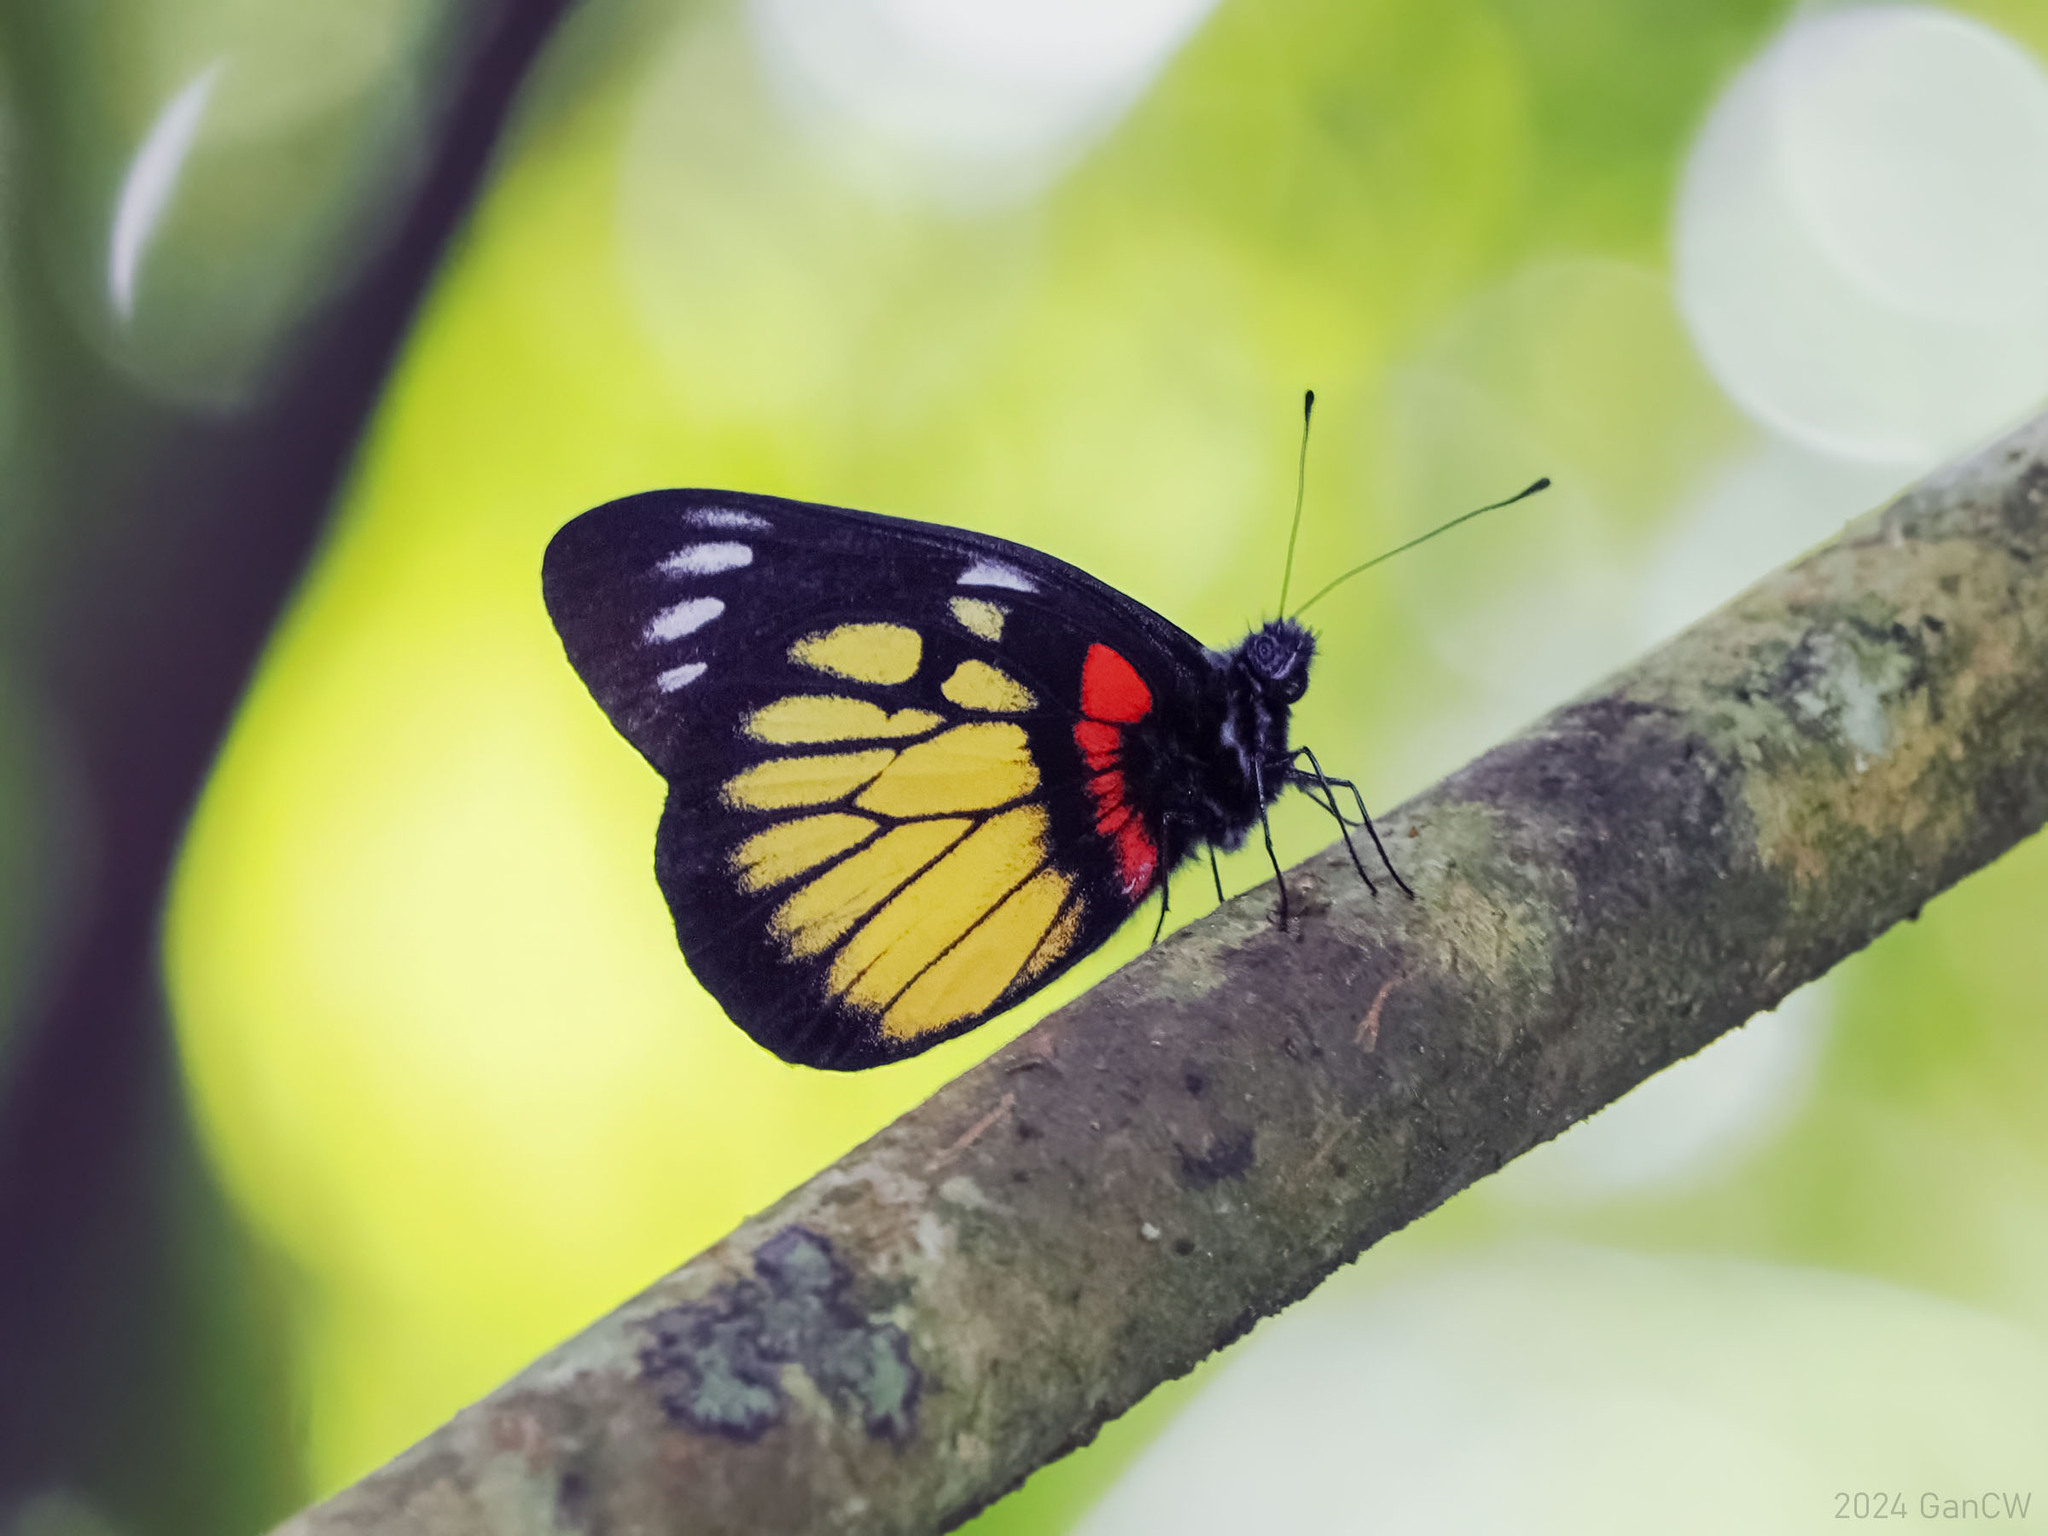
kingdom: Animalia
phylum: Arthropoda
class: Insecta
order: Lepidoptera
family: Pieridae
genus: Delias
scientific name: Delias henningia
